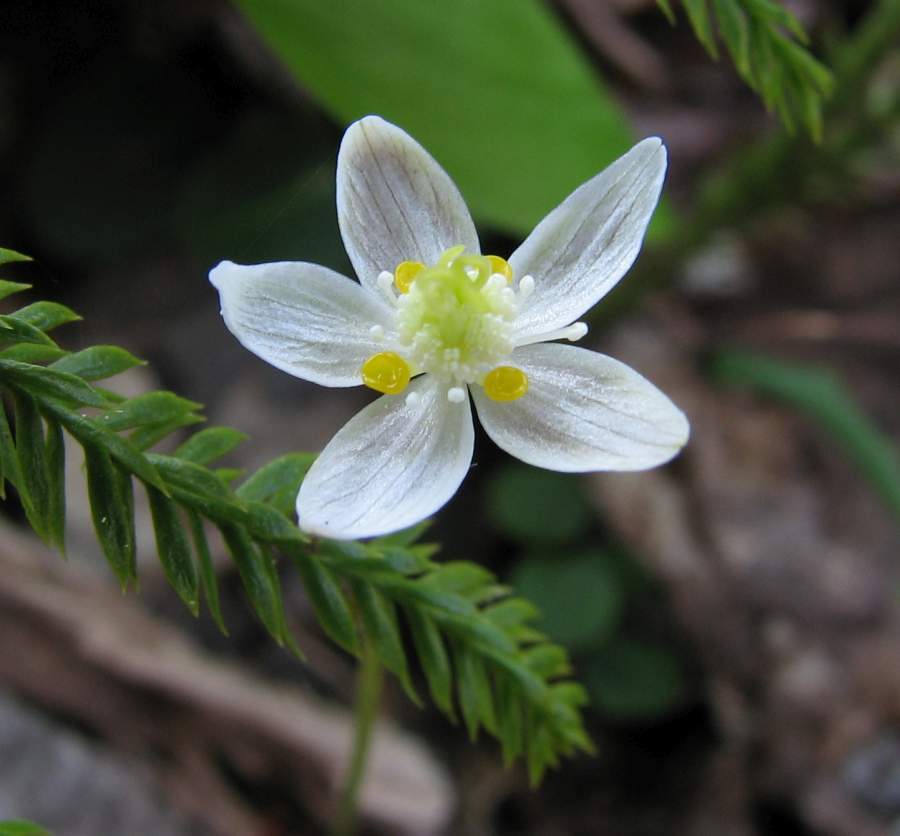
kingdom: Plantae
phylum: Tracheophyta
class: Magnoliopsida
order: Ranunculales
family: Ranunculaceae
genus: Coptis
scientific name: Coptis trifolia
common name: Canker-root
